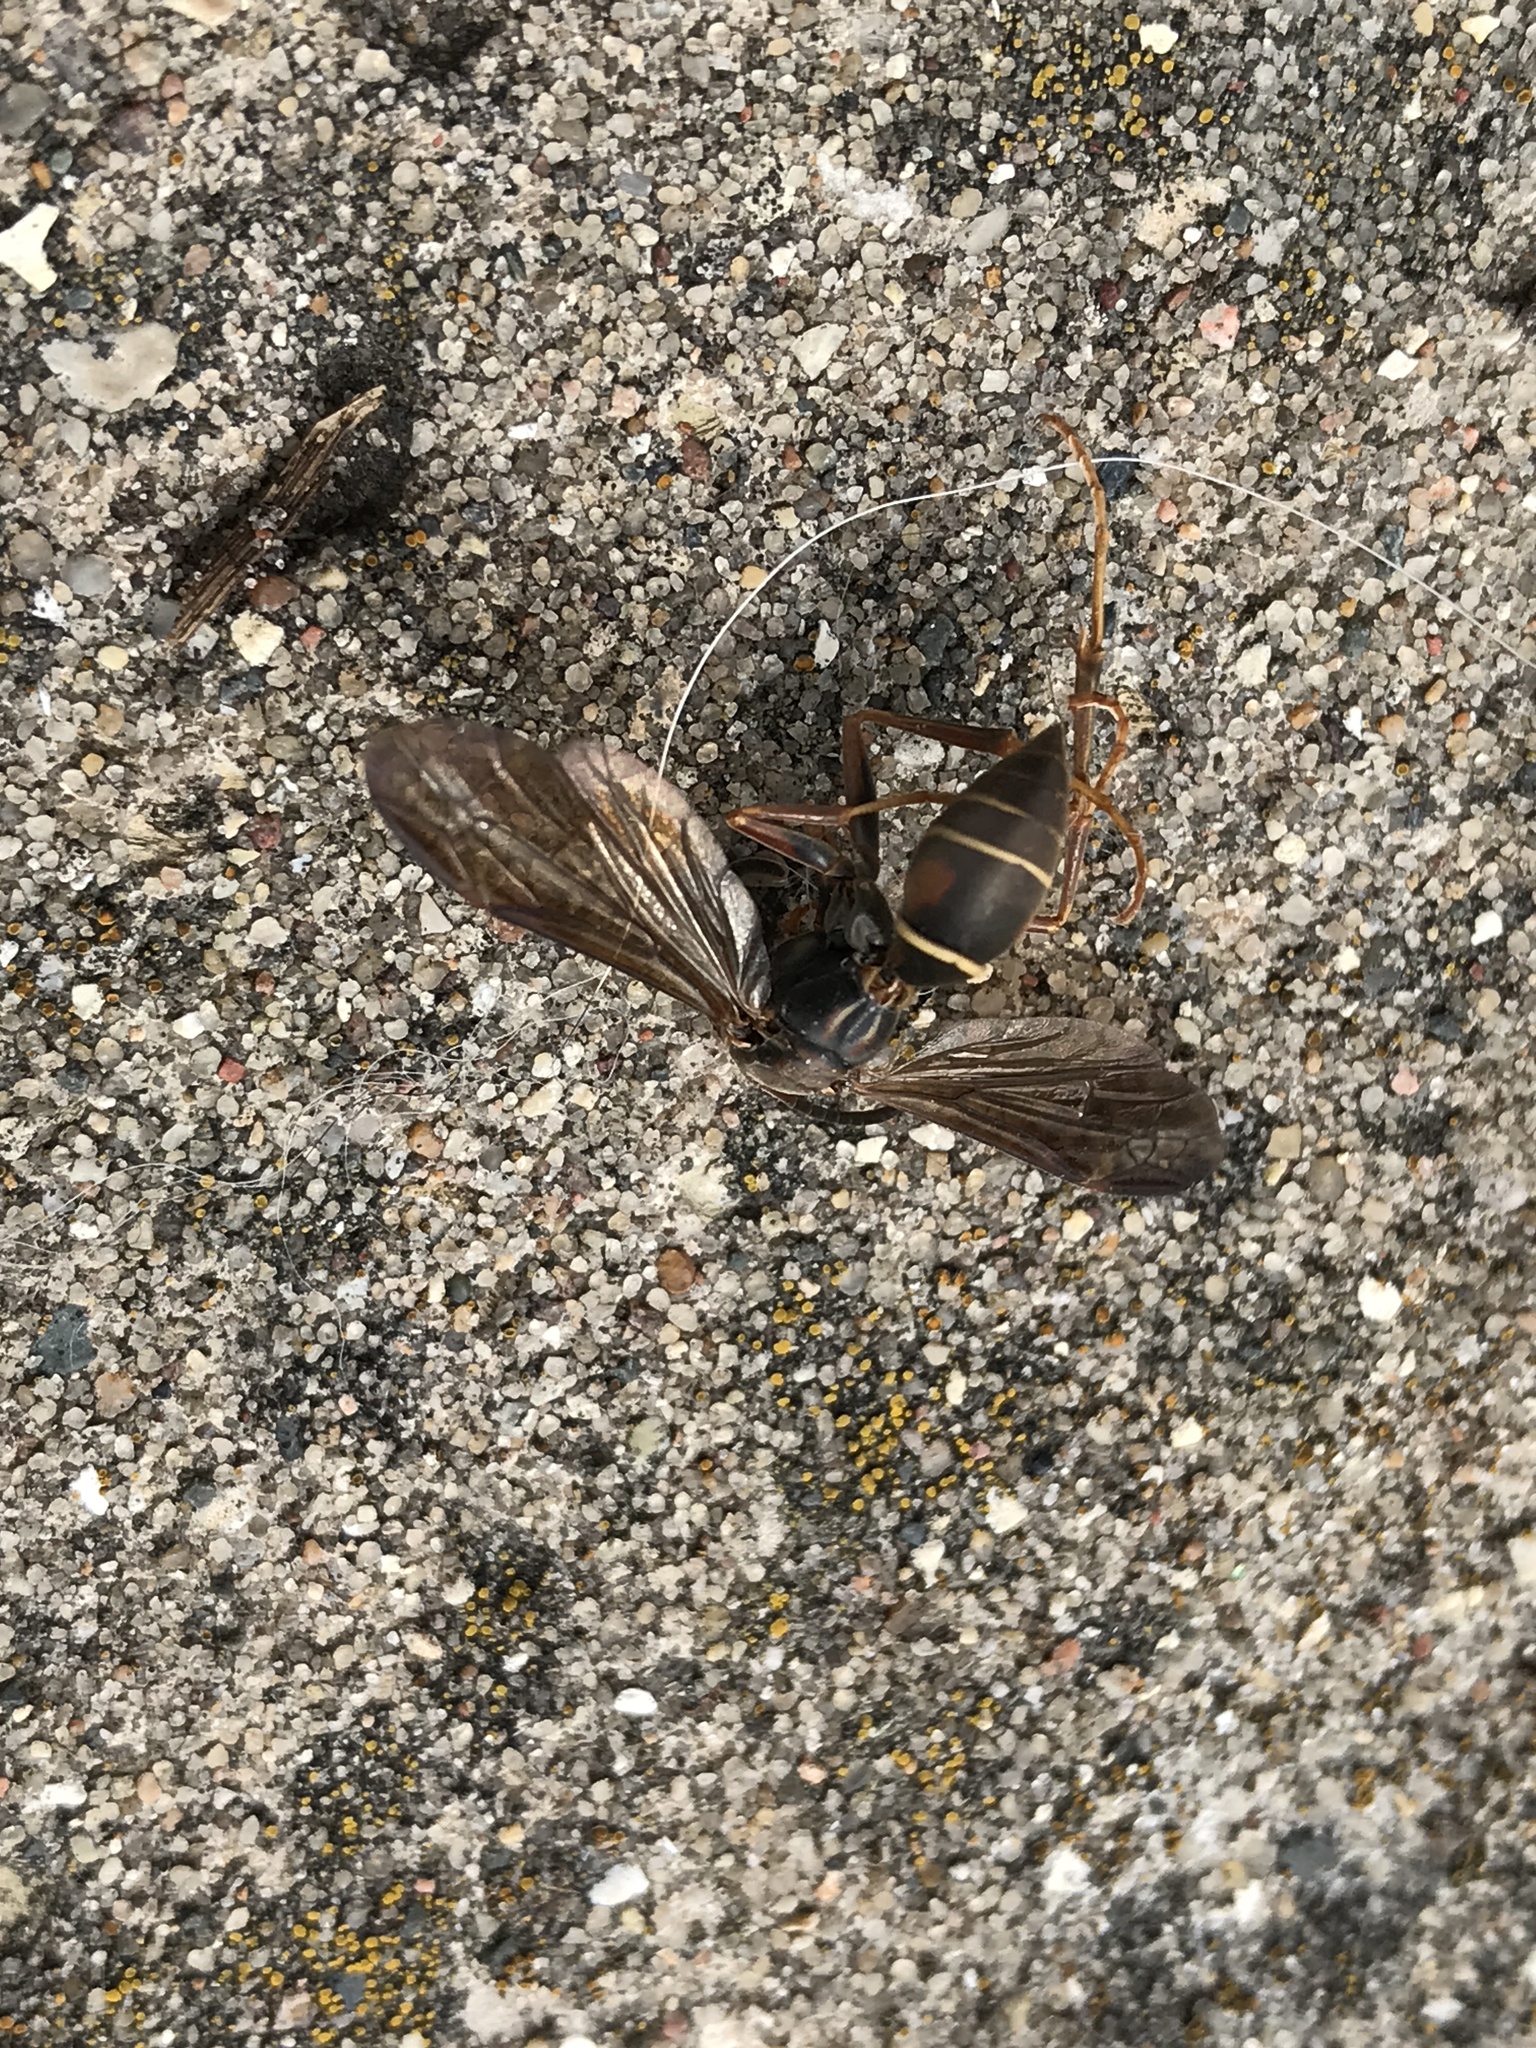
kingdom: Animalia
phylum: Arthropoda
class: Insecta
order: Hymenoptera
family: Eumenidae
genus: Polistes
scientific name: Polistes fuscatus
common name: Dark paper wasp
